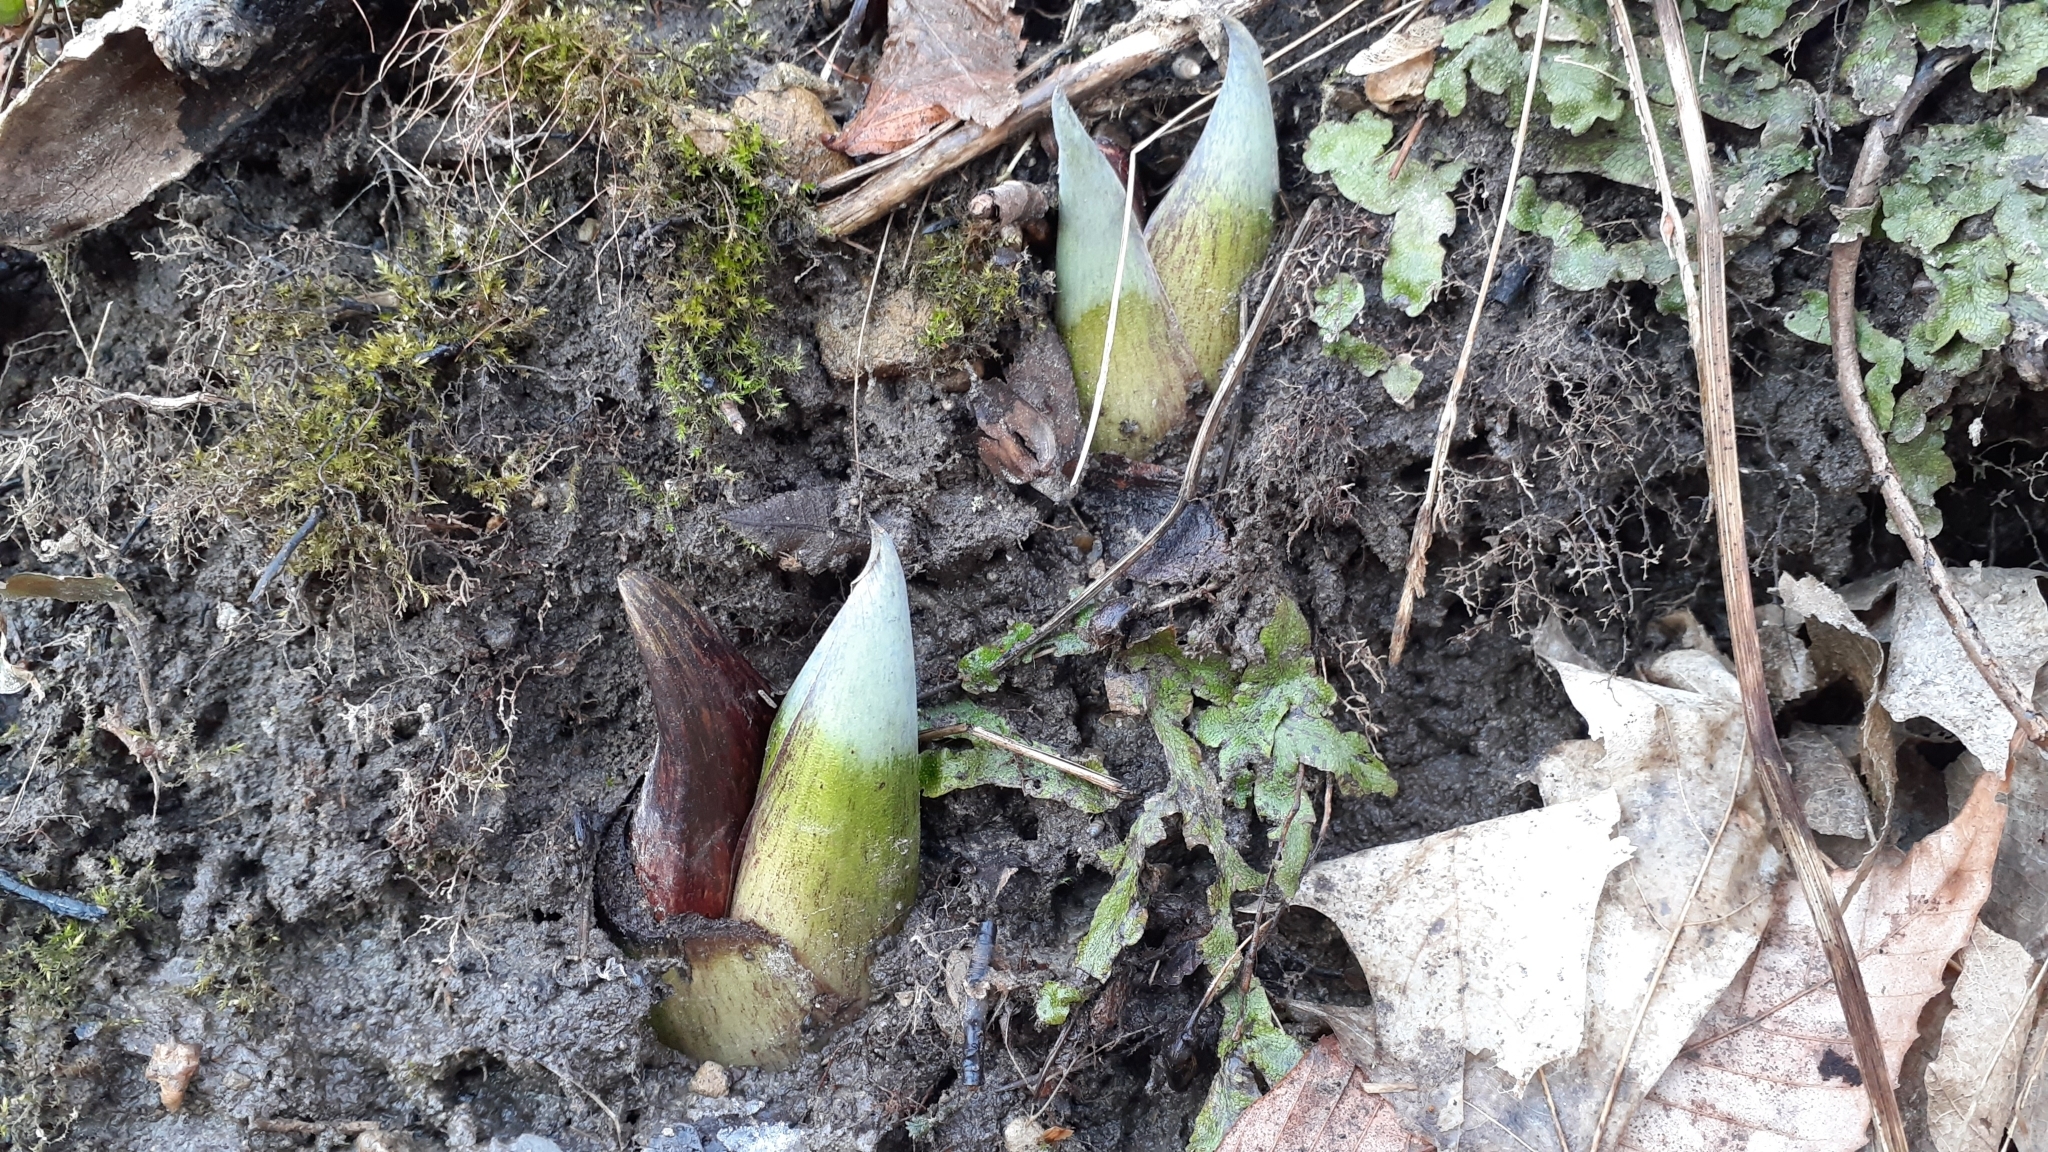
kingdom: Plantae
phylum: Tracheophyta
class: Liliopsida
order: Alismatales
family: Araceae
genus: Symplocarpus
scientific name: Symplocarpus foetidus
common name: Eastern skunk cabbage
